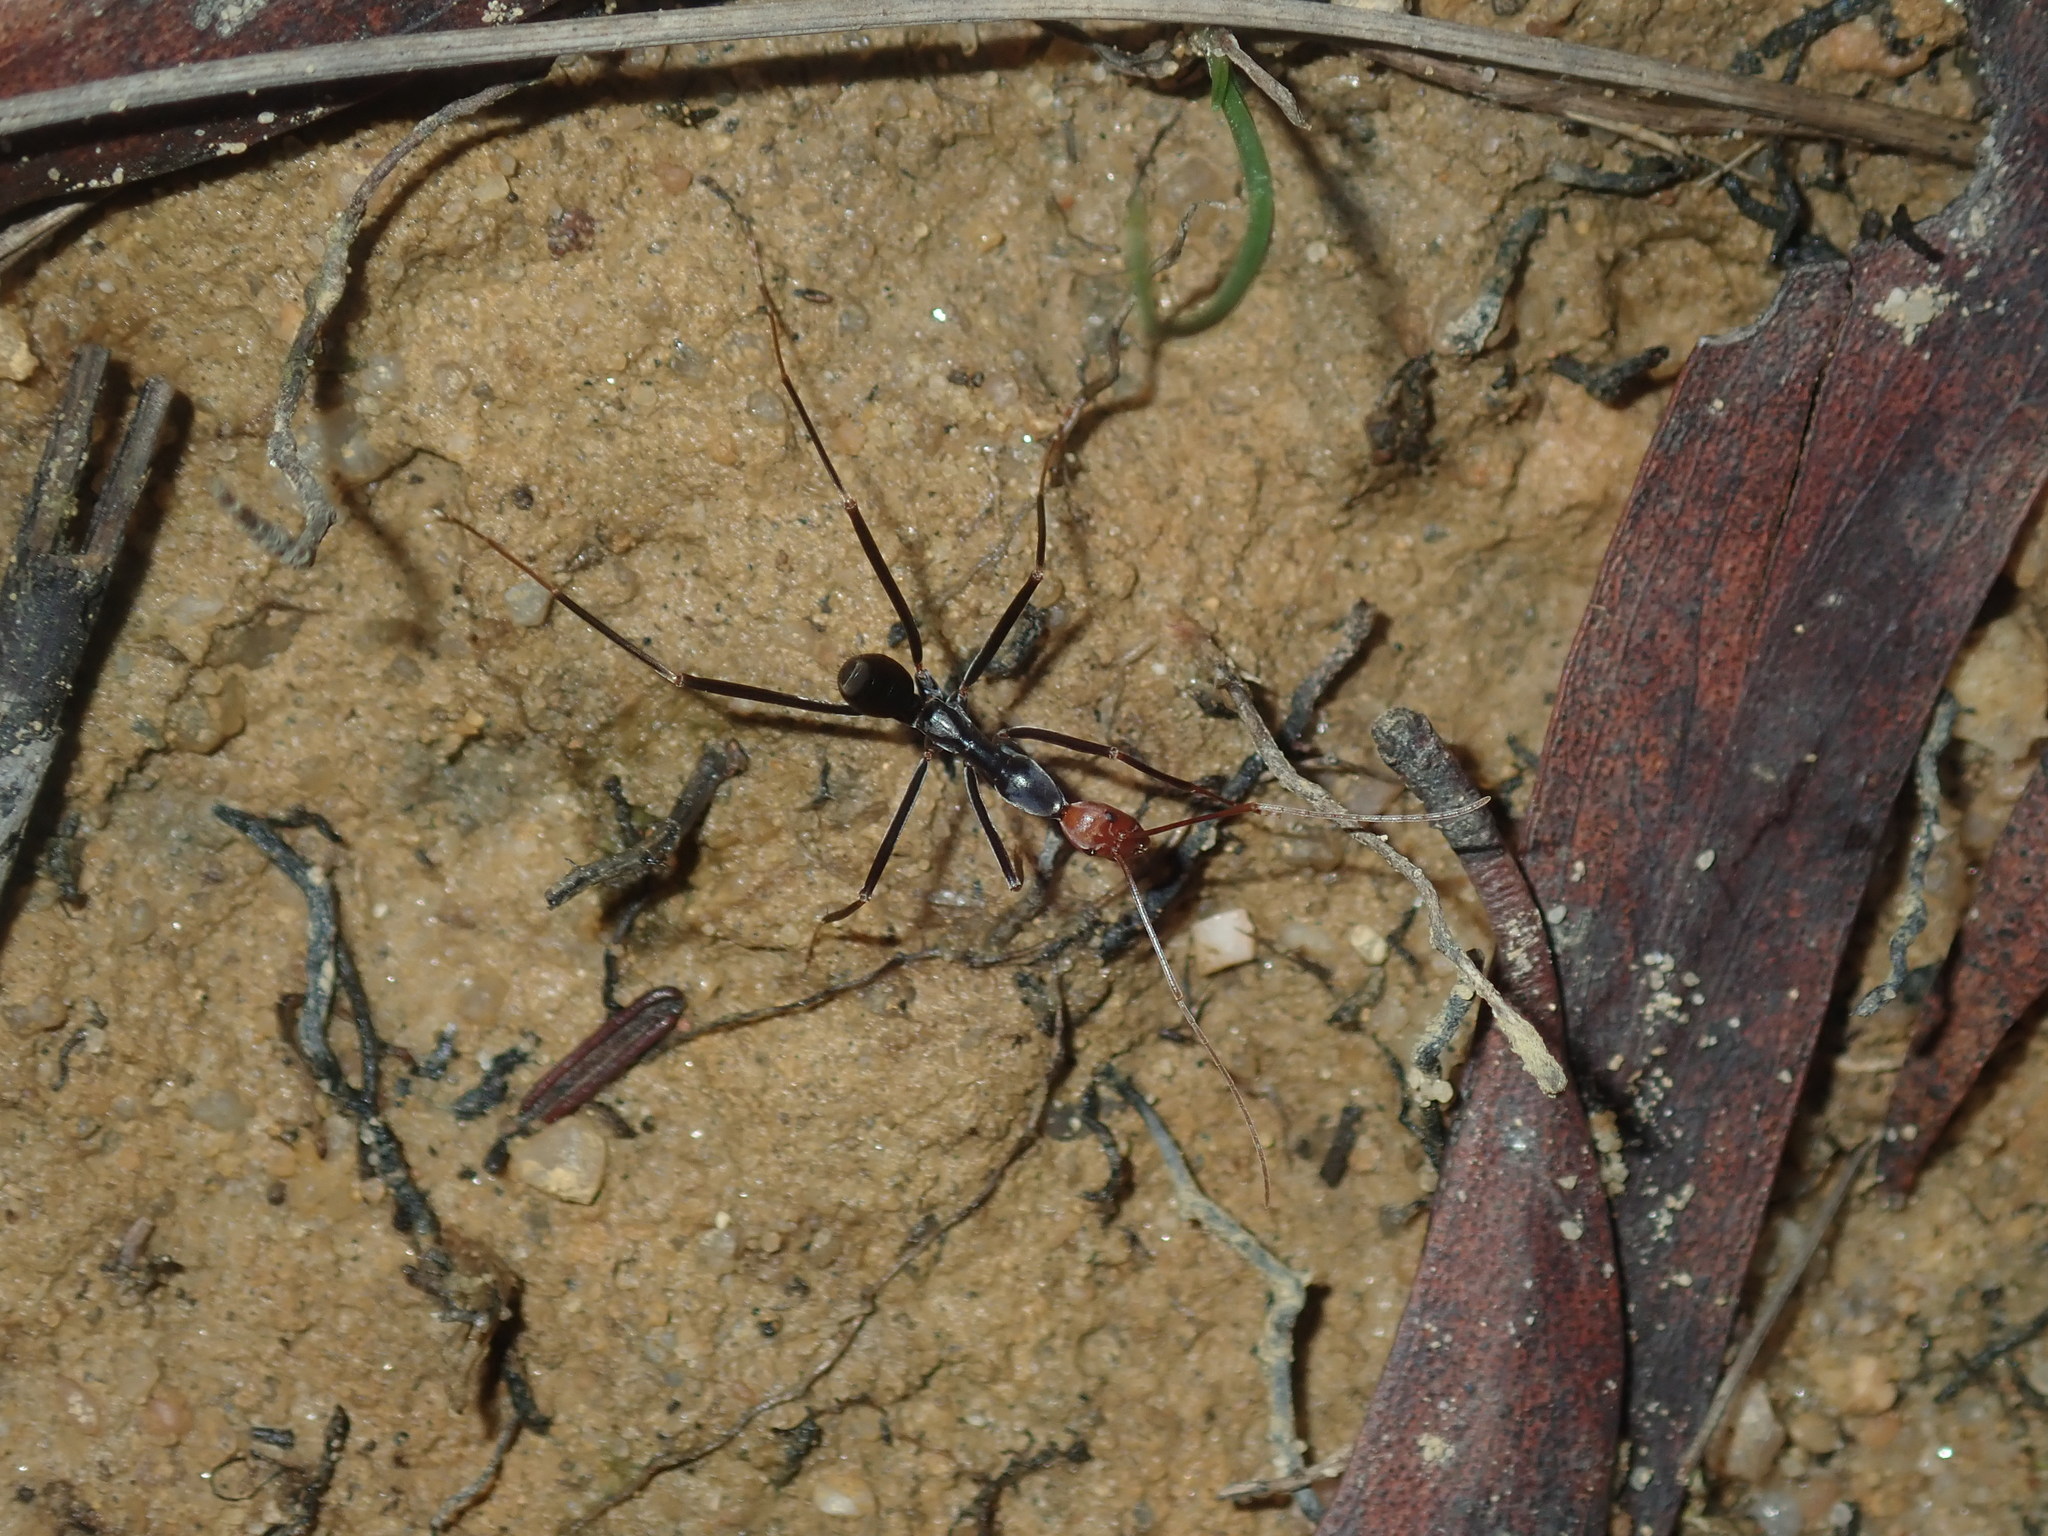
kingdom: Animalia
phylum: Arthropoda
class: Insecta
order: Hymenoptera
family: Formicidae
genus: Leptomyrmex
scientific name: Leptomyrmex erythrocephalus
